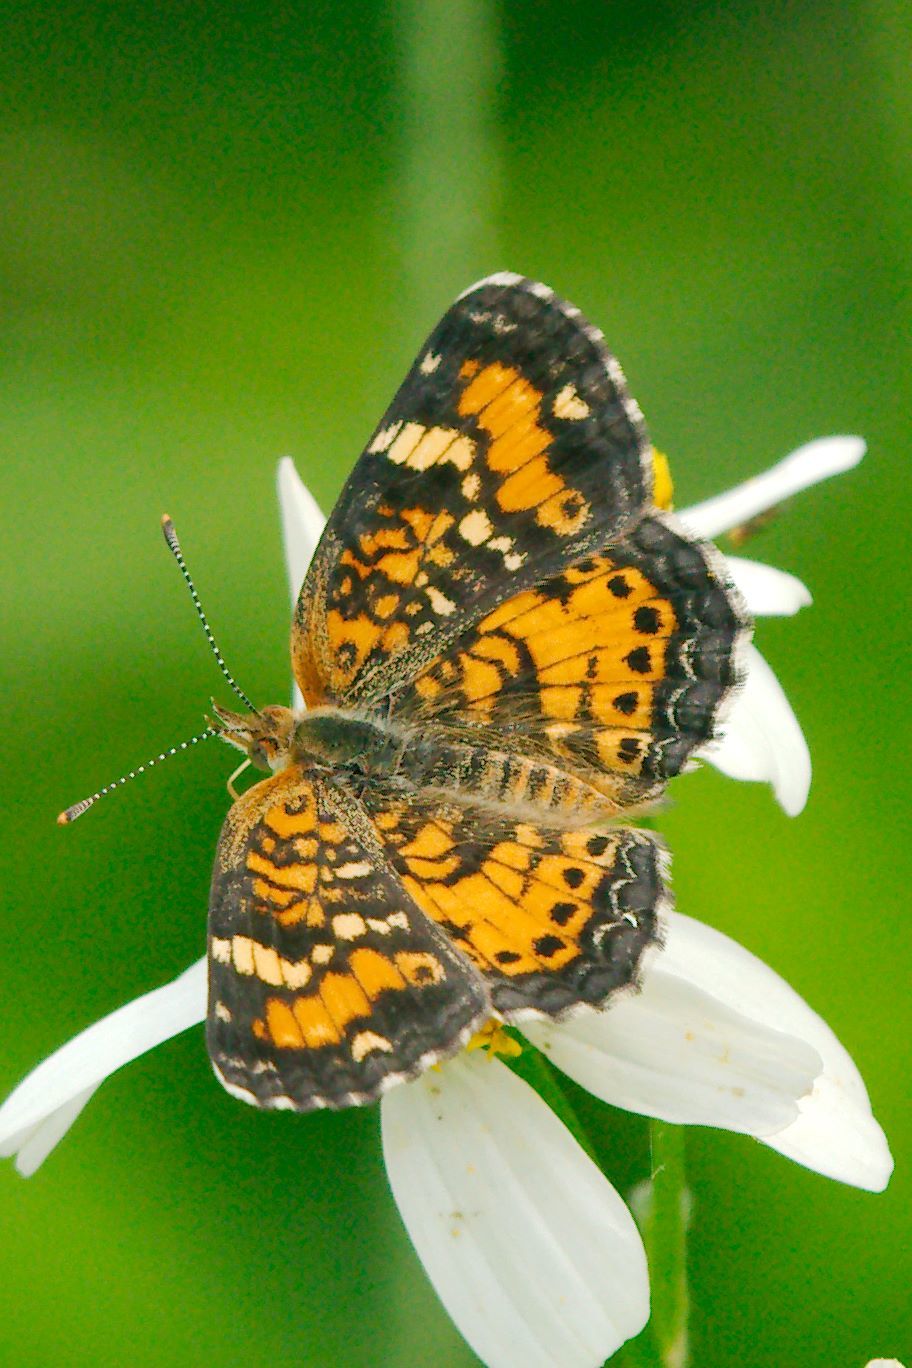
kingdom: Animalia
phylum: Arthropoda
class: Insecta
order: Lepidoptera
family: Nymphalidae
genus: Phyciodes
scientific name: Phyciodes phaon
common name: Phaon crescent
